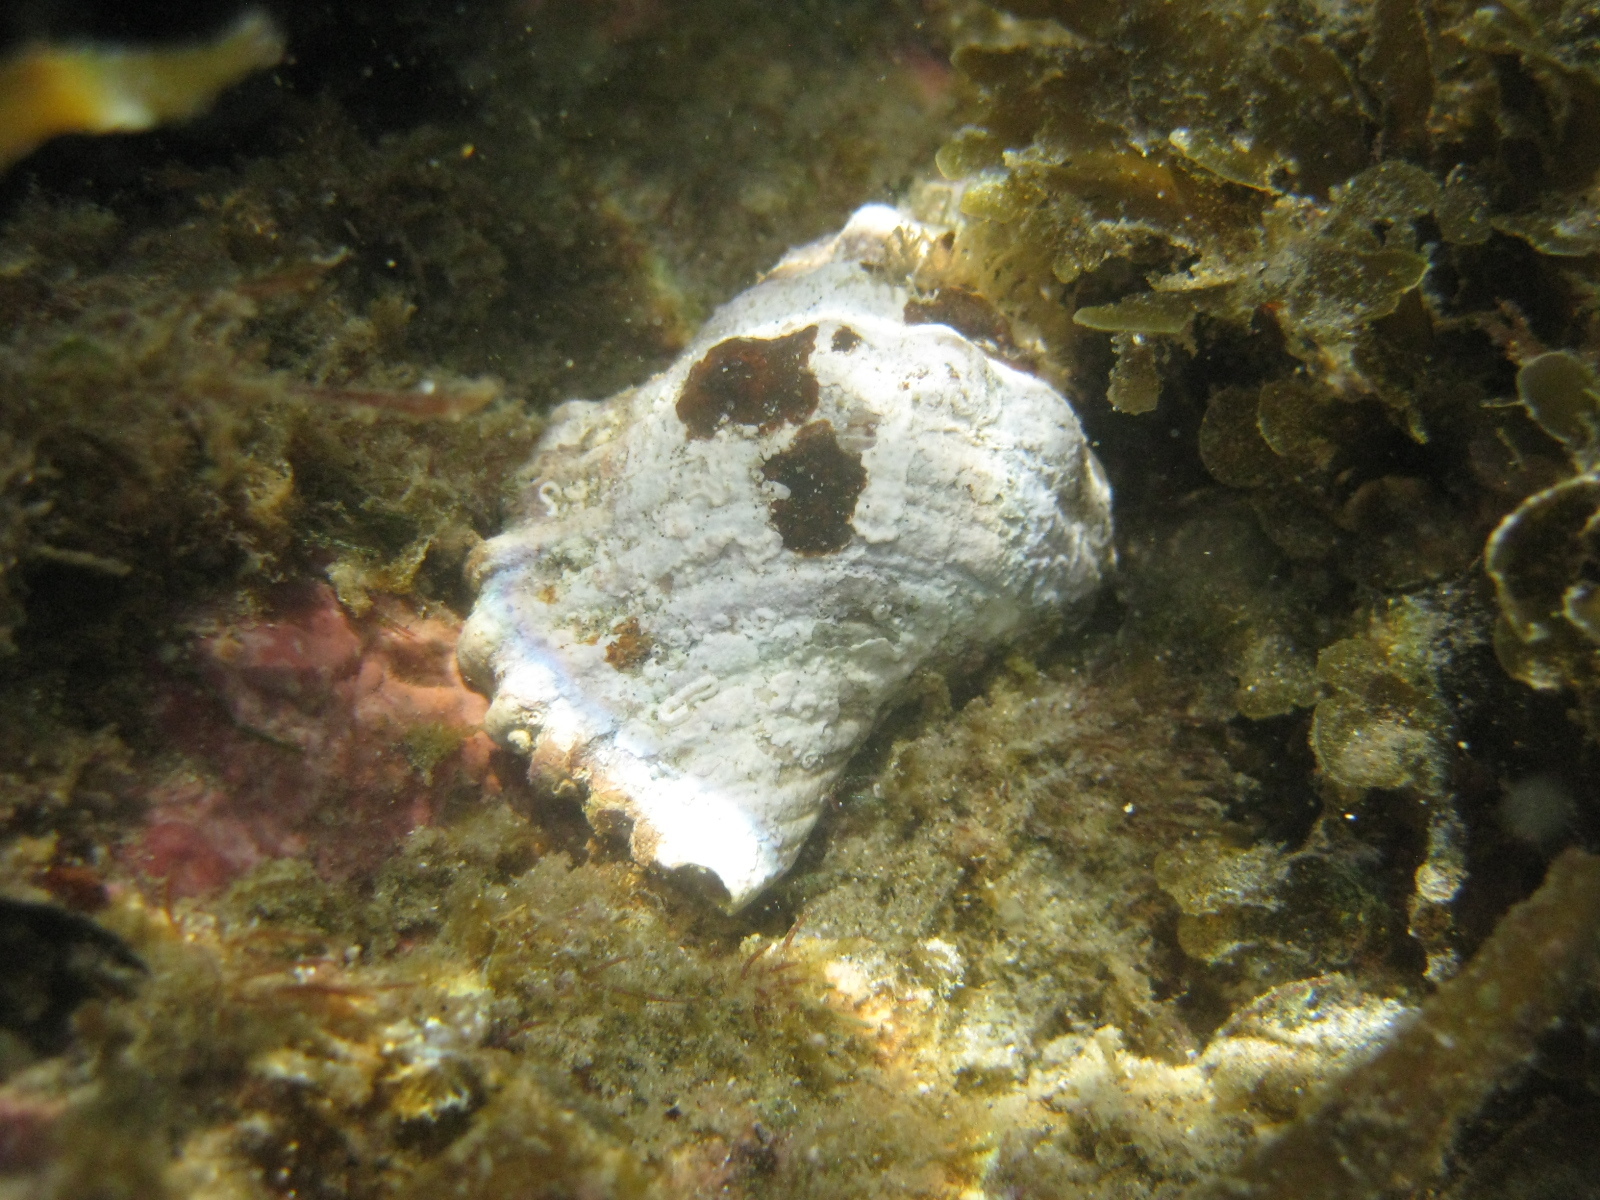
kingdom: Animalia
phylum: Mollusca
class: Gastropoda
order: Littorinimorpha
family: Cymatiidae
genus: Cabestana
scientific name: Cabestana spengleri
